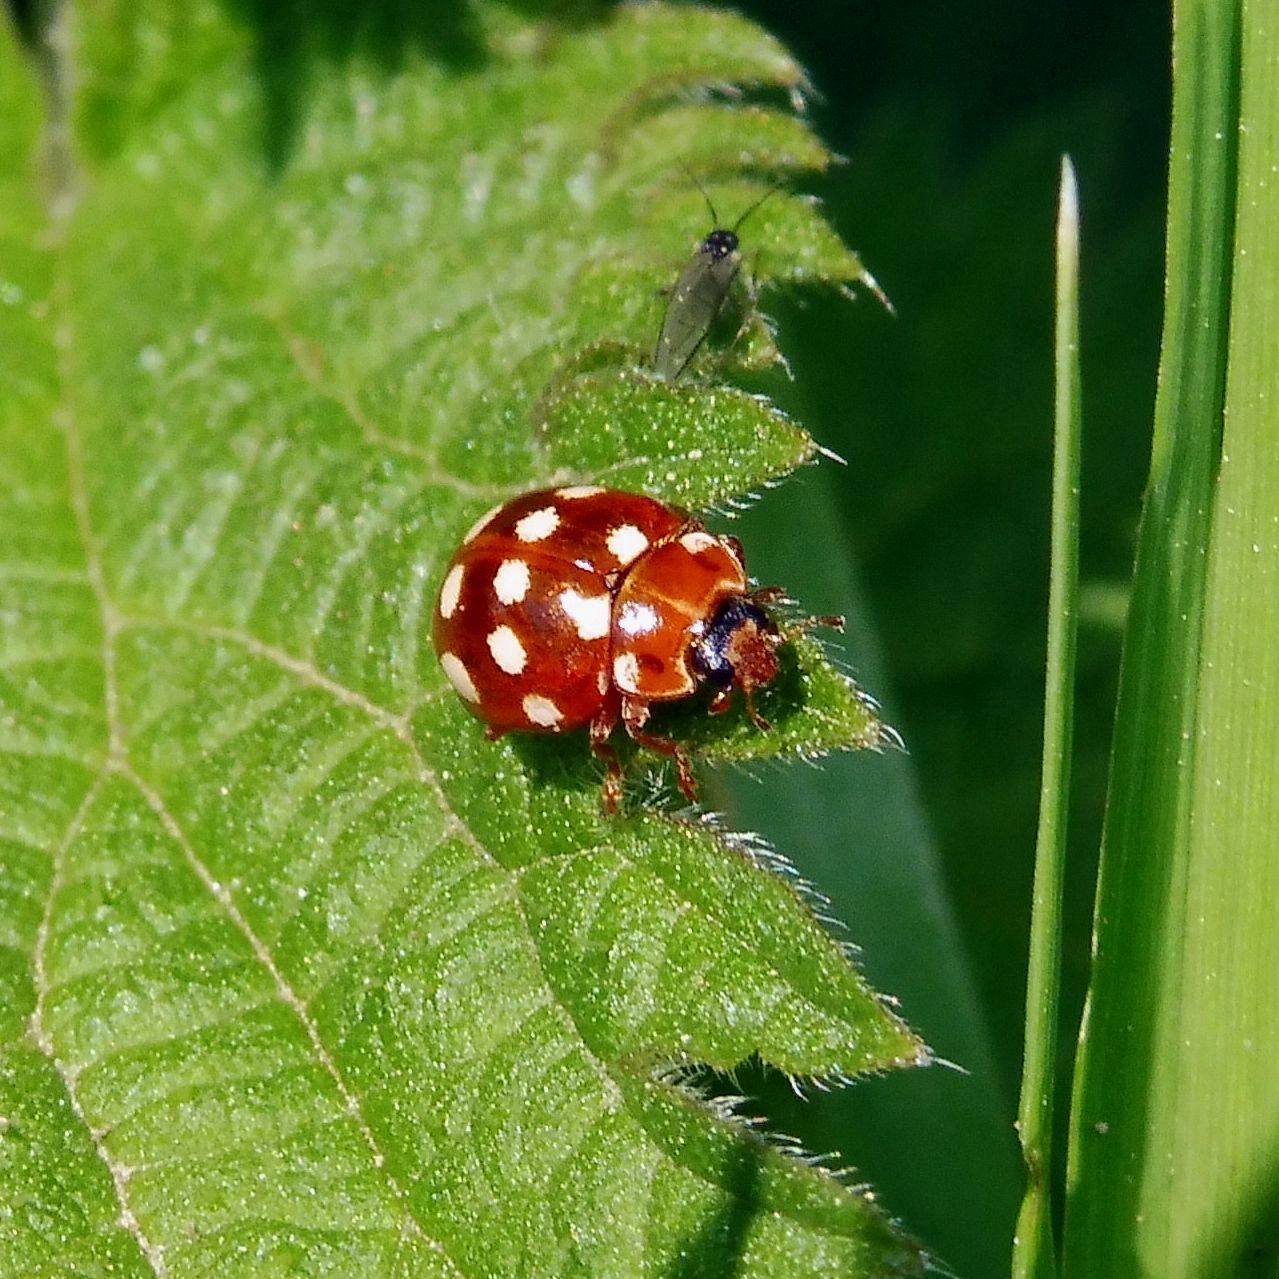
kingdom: Animalia
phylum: Arthropoda
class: Insecta
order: Coleoptera
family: Coccinellidae
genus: Calvia
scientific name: Calvia quatuordecimguttata
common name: Cream-spot ladybird
